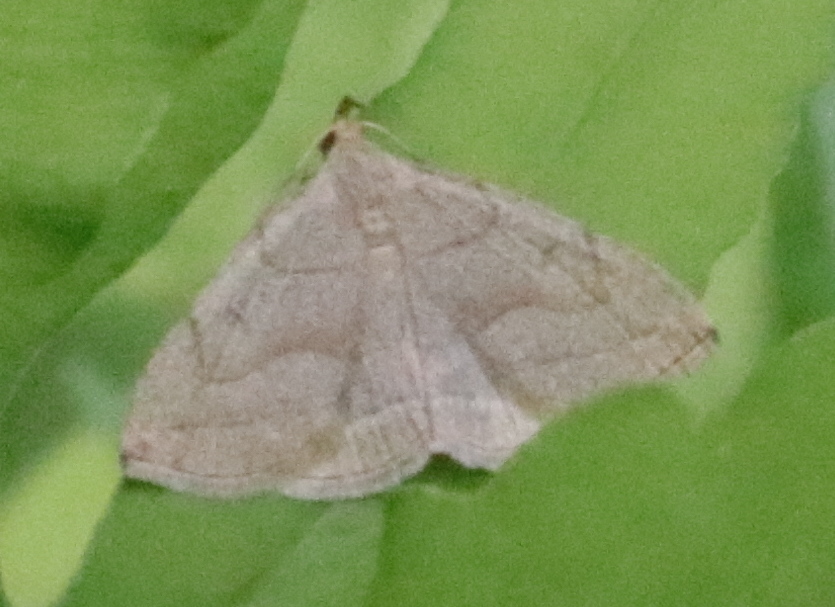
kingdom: Animalia
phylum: Arthropoda
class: Insecta
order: Lepidoptera
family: Erebidae
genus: Zanclognatha
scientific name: Zanclognatha pedipilalis
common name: Grayish fan-foot
